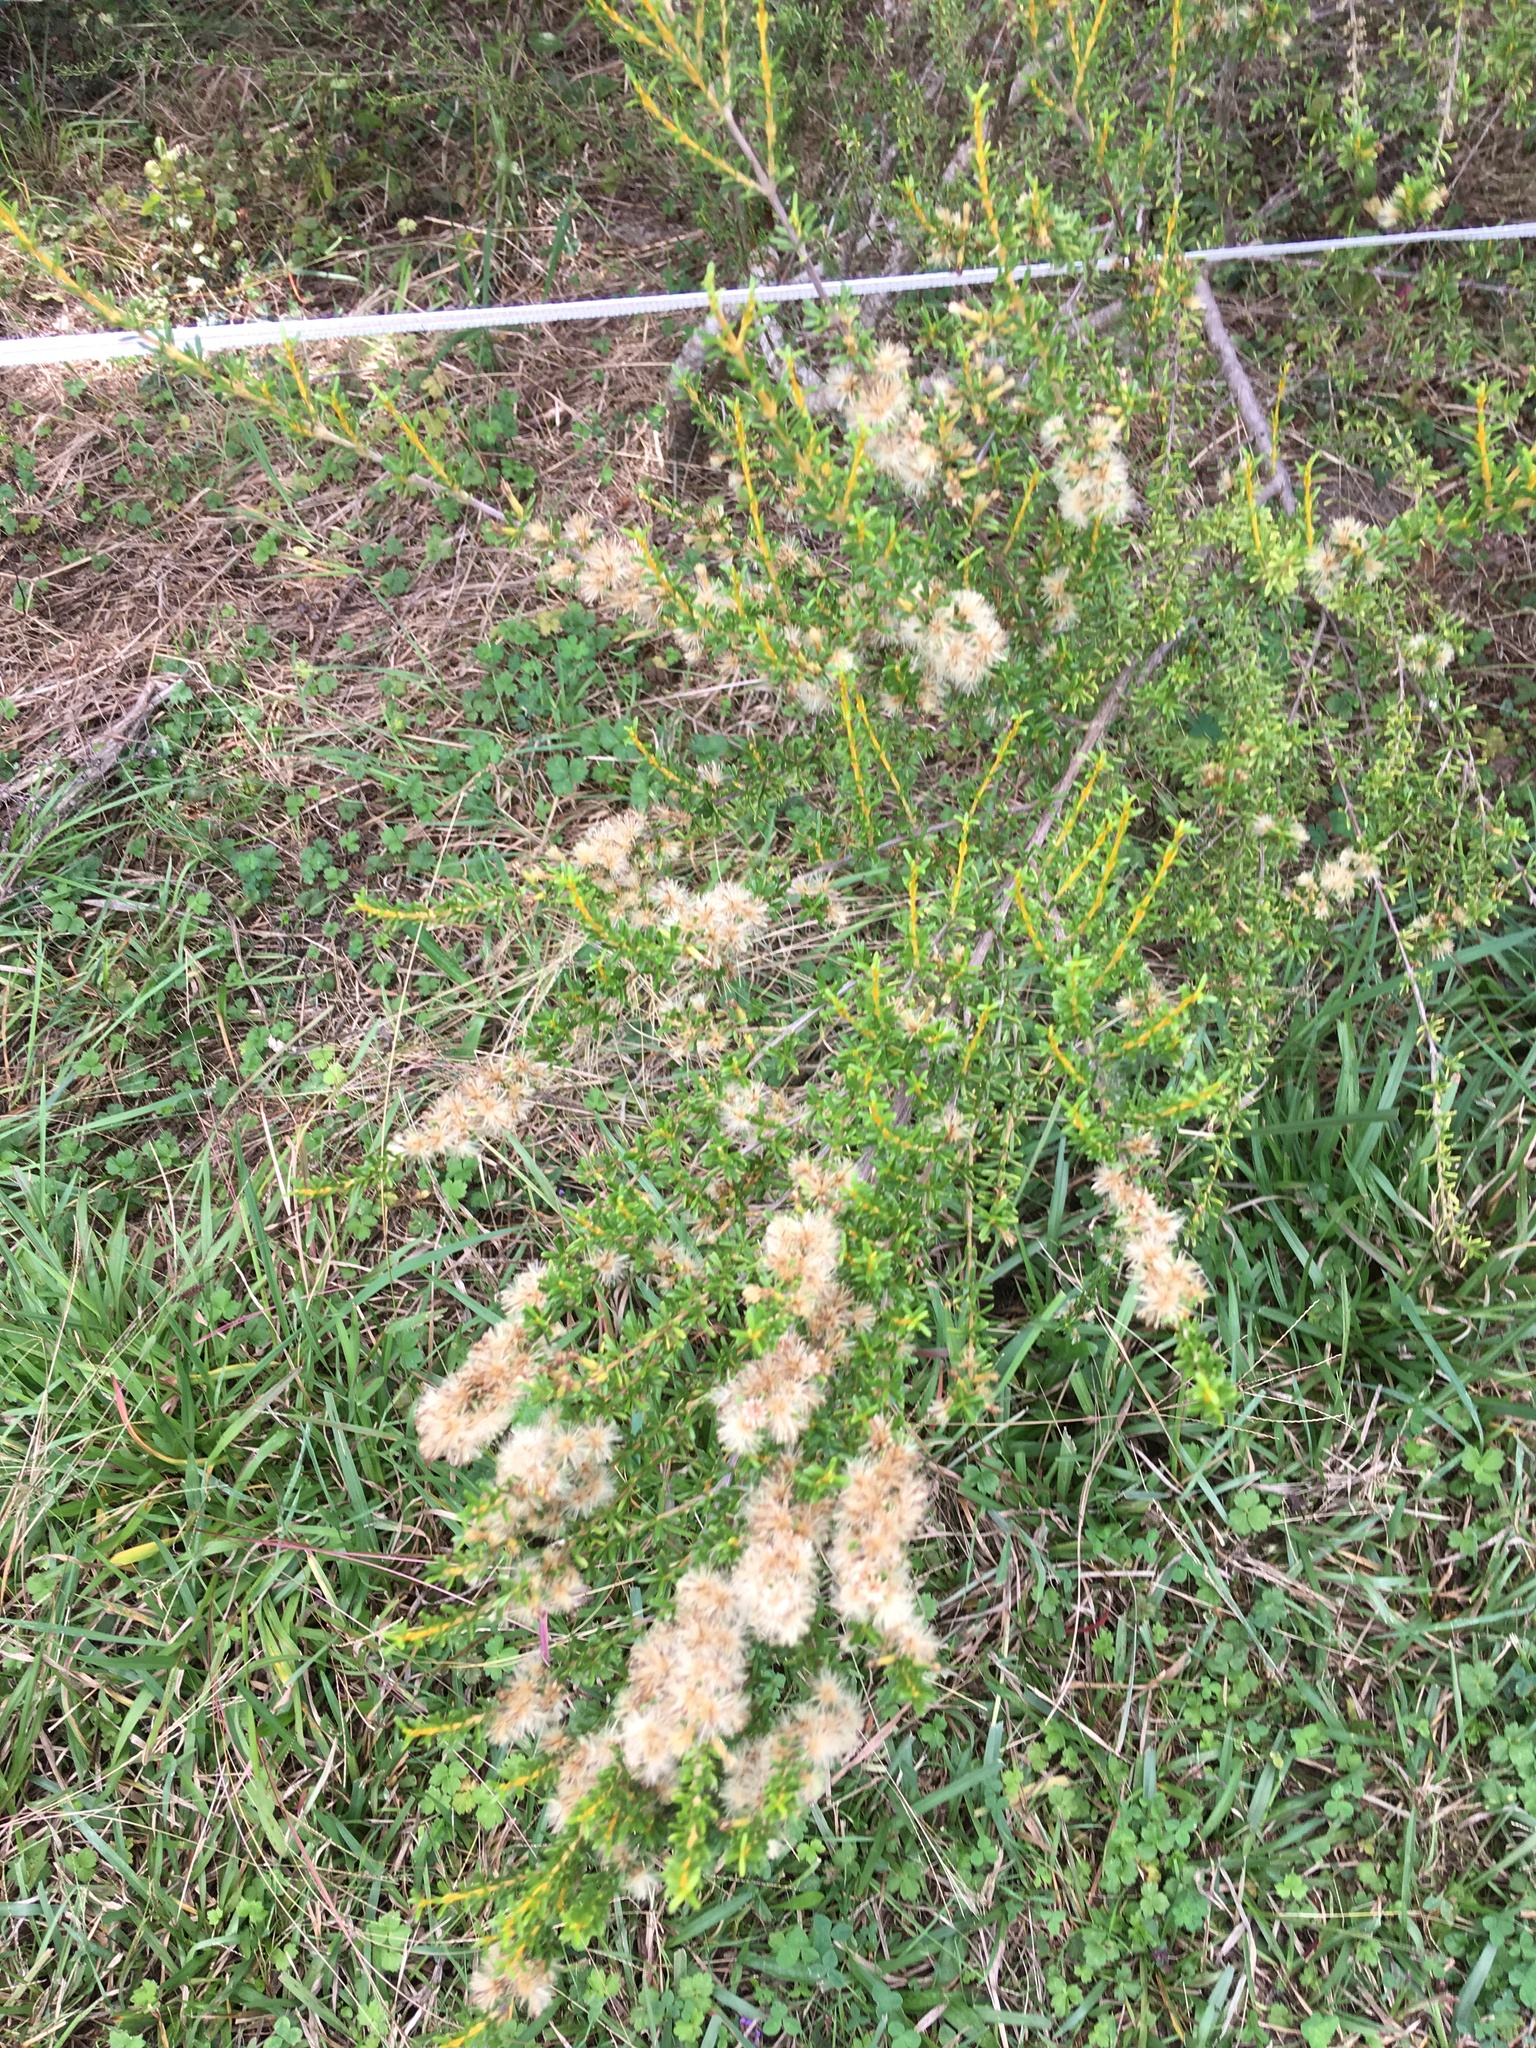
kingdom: Plantae
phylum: Tracheophyta
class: Magnoliopsida
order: Asterales
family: Asteraceae
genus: Olearia
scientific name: Olearia solandri
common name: Coastal daisybush
